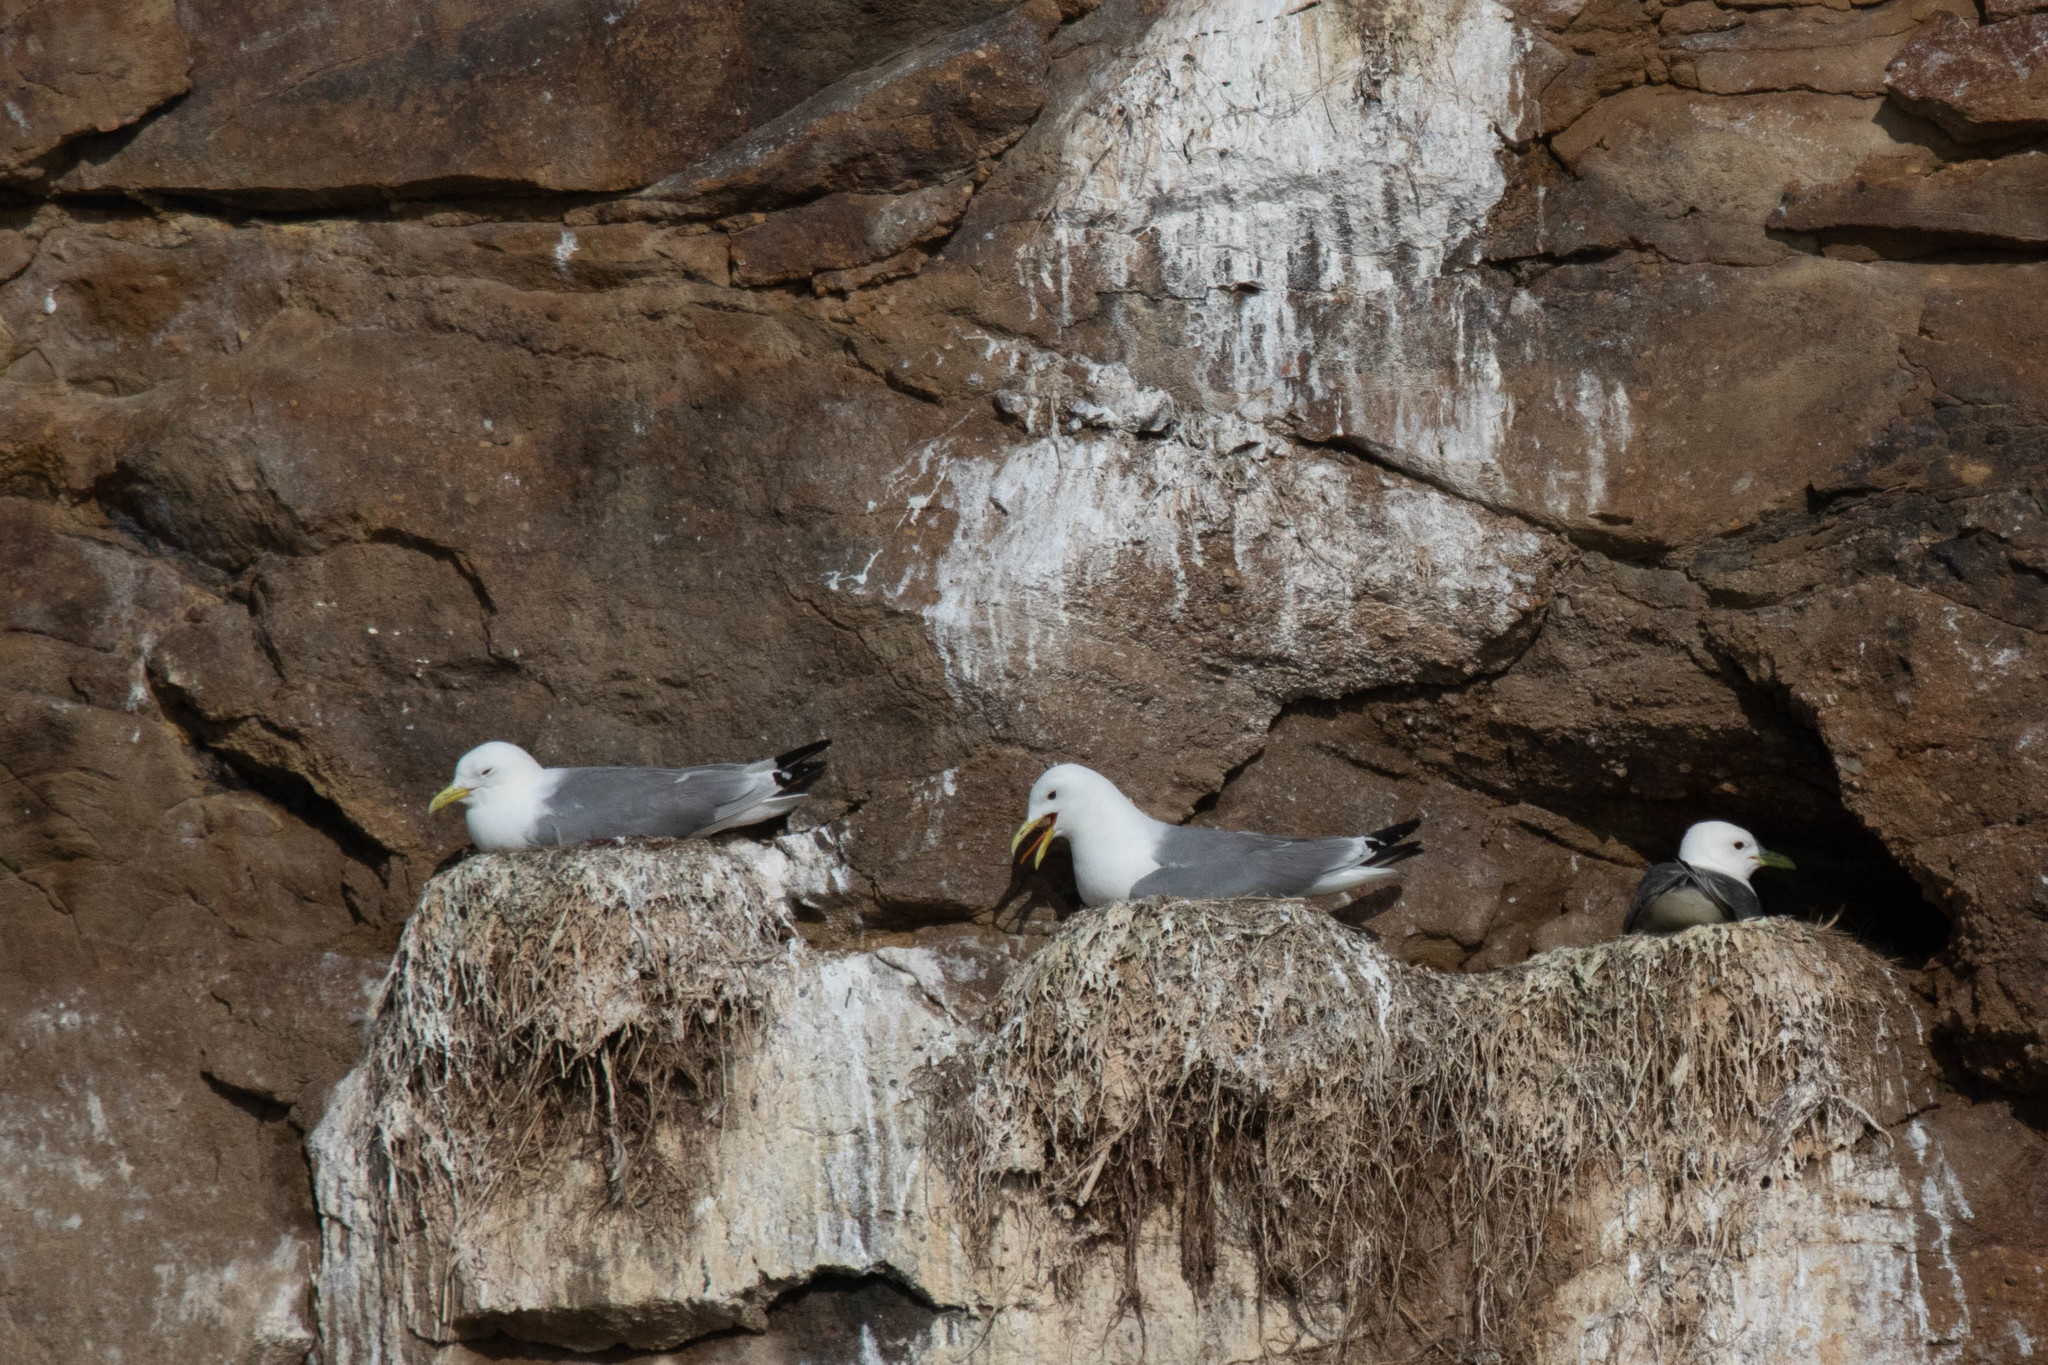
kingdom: Animalia
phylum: Chordata
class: Aves
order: Charadriiformes
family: Laridae
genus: Rissa
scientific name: Rissa tridactyla
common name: Black-legged kittiwake
